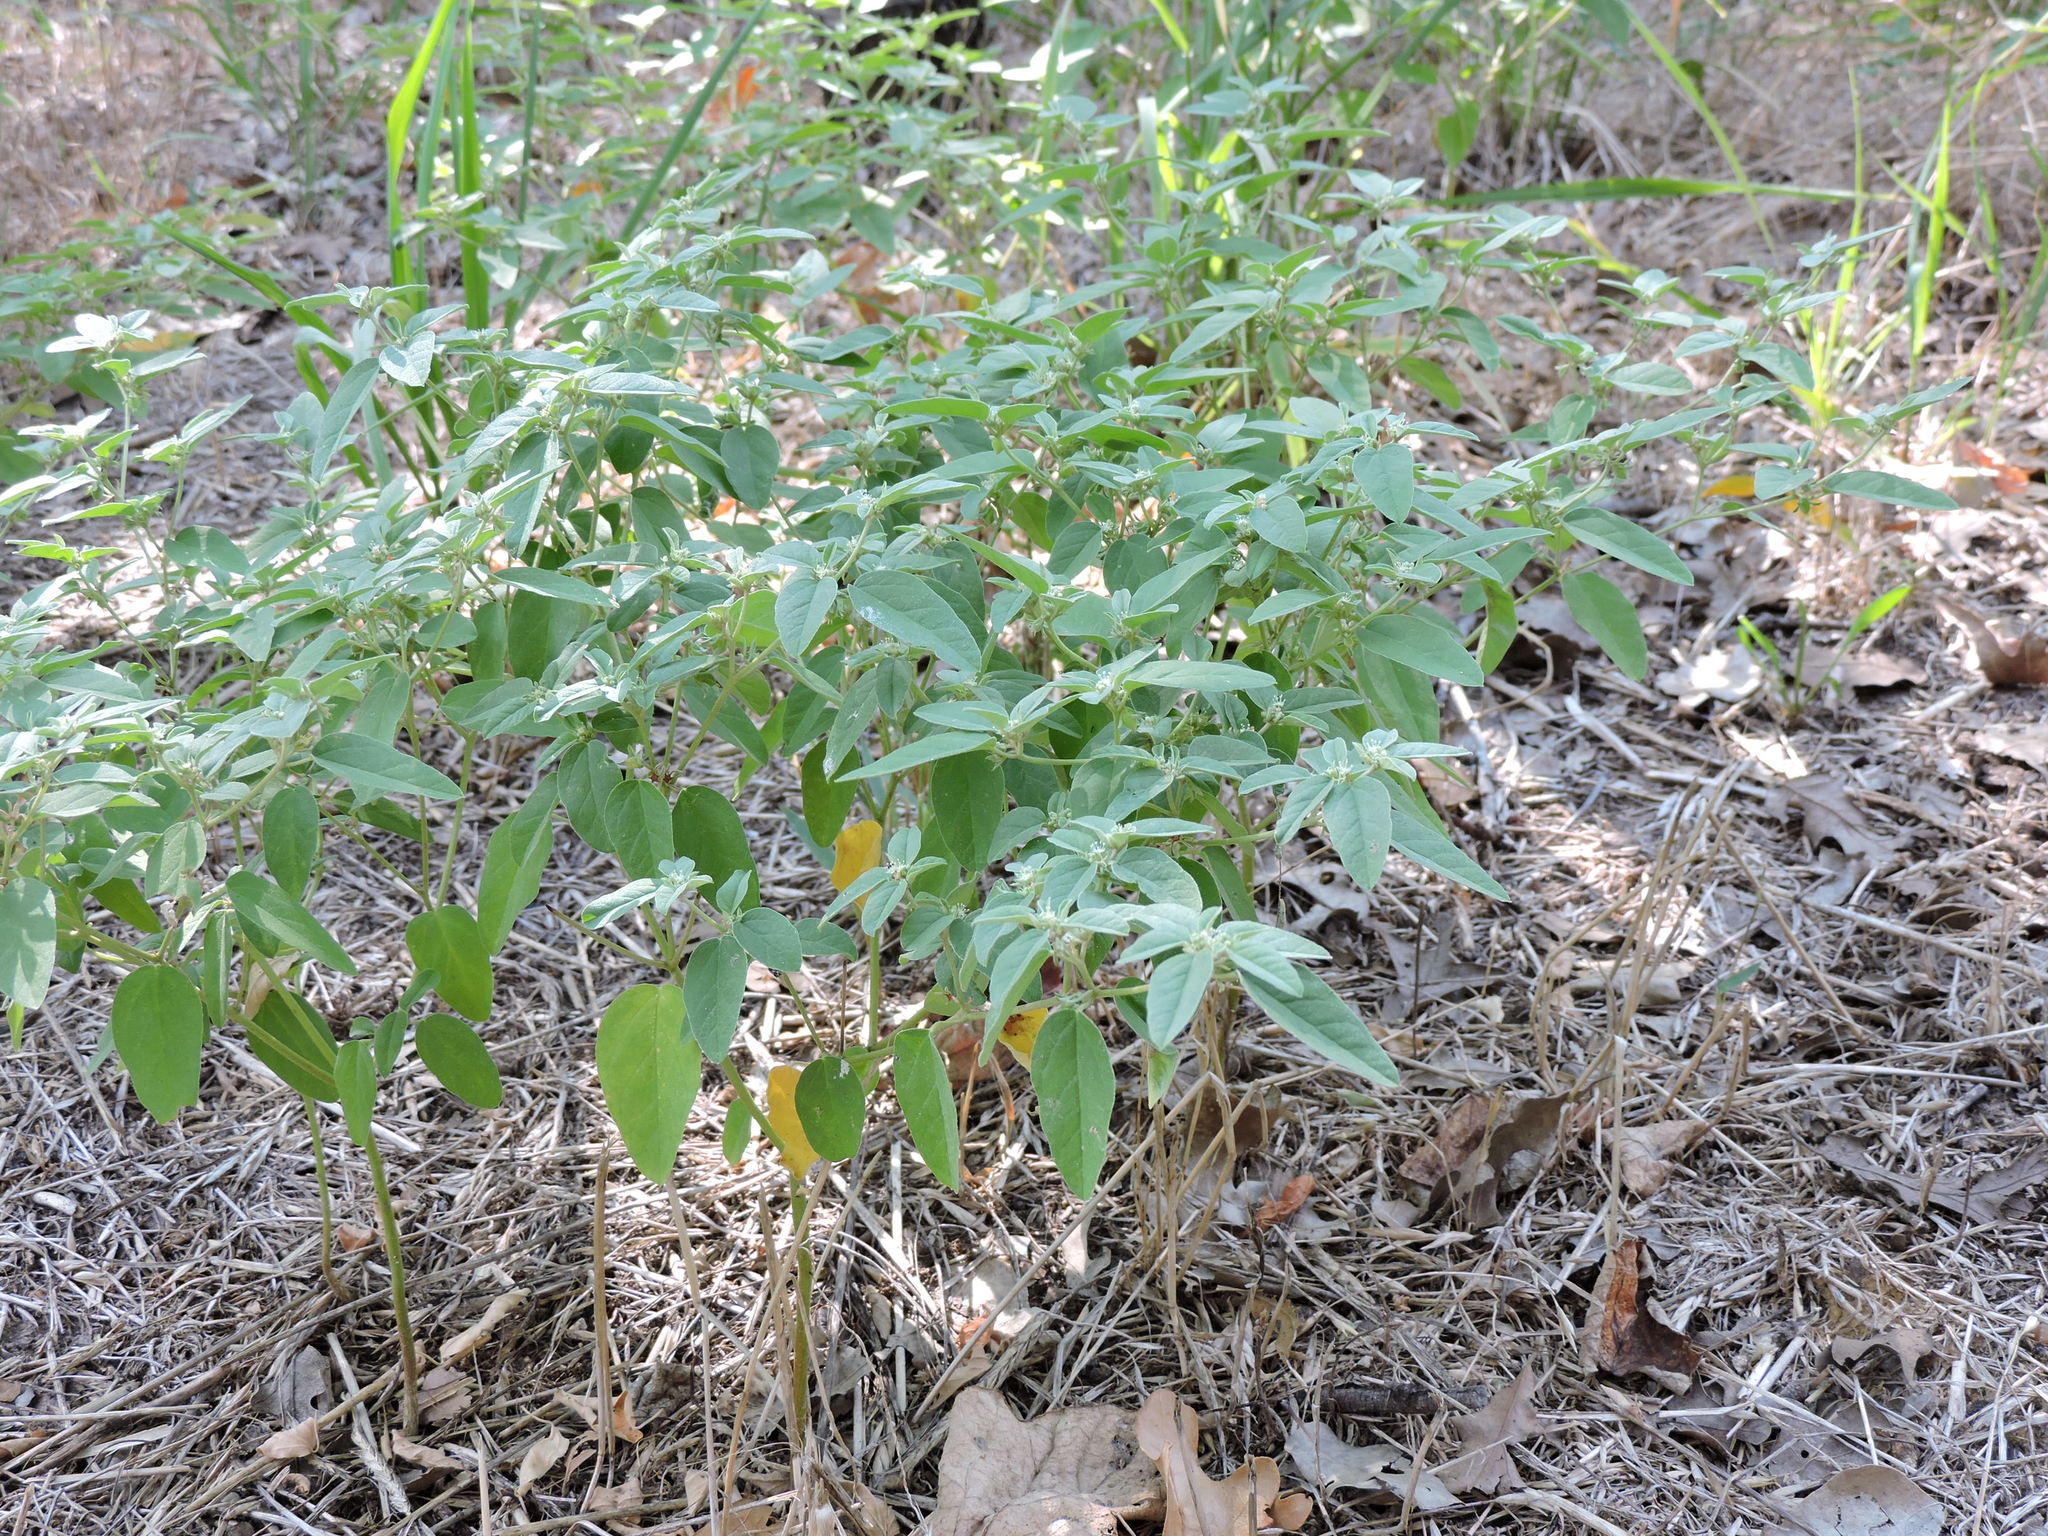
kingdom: Plantae
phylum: Tracheophyta
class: Magnoliopsida
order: Malpighiales
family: Euphorbiaceae
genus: Croton
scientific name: Croton monanthogynus
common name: One-seed croton
